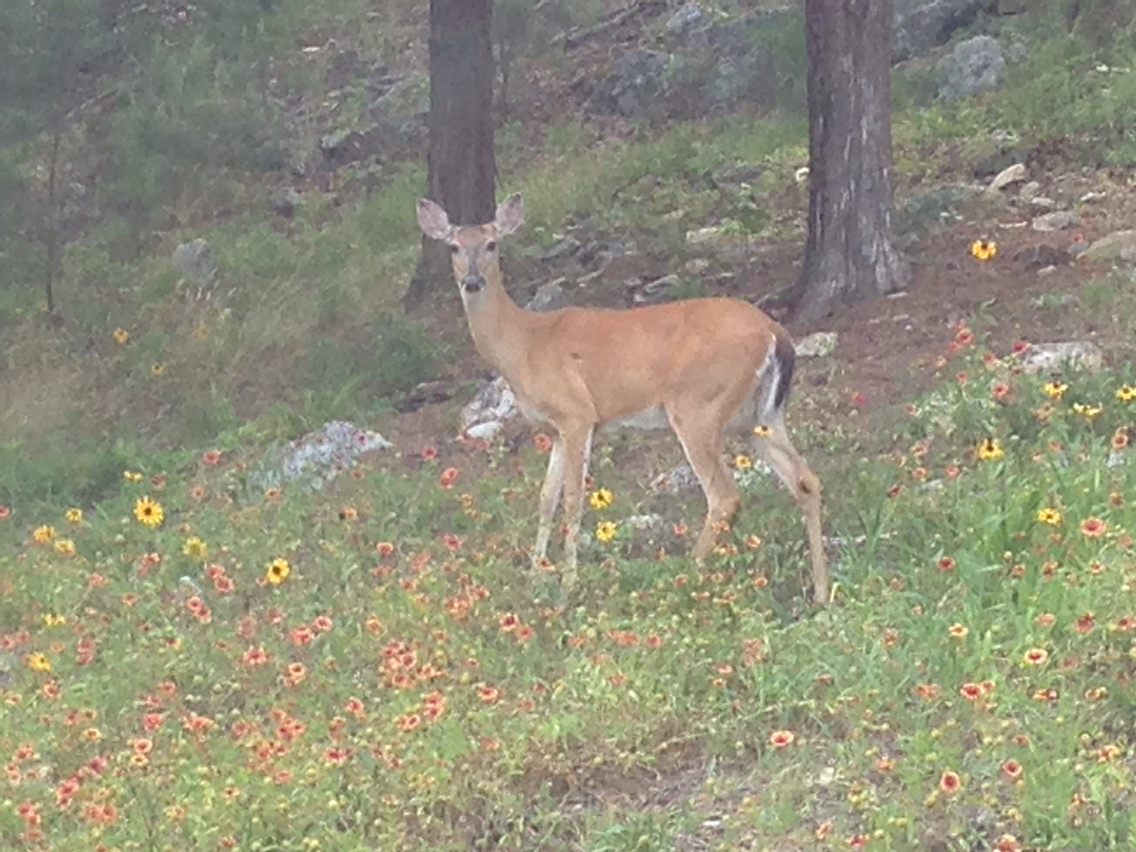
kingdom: Animalia
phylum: Chordata
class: Mammalia
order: Artiodactyla
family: Cervidae
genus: Odocoileus
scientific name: Odocoileus virginianus
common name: White-tailed deer
